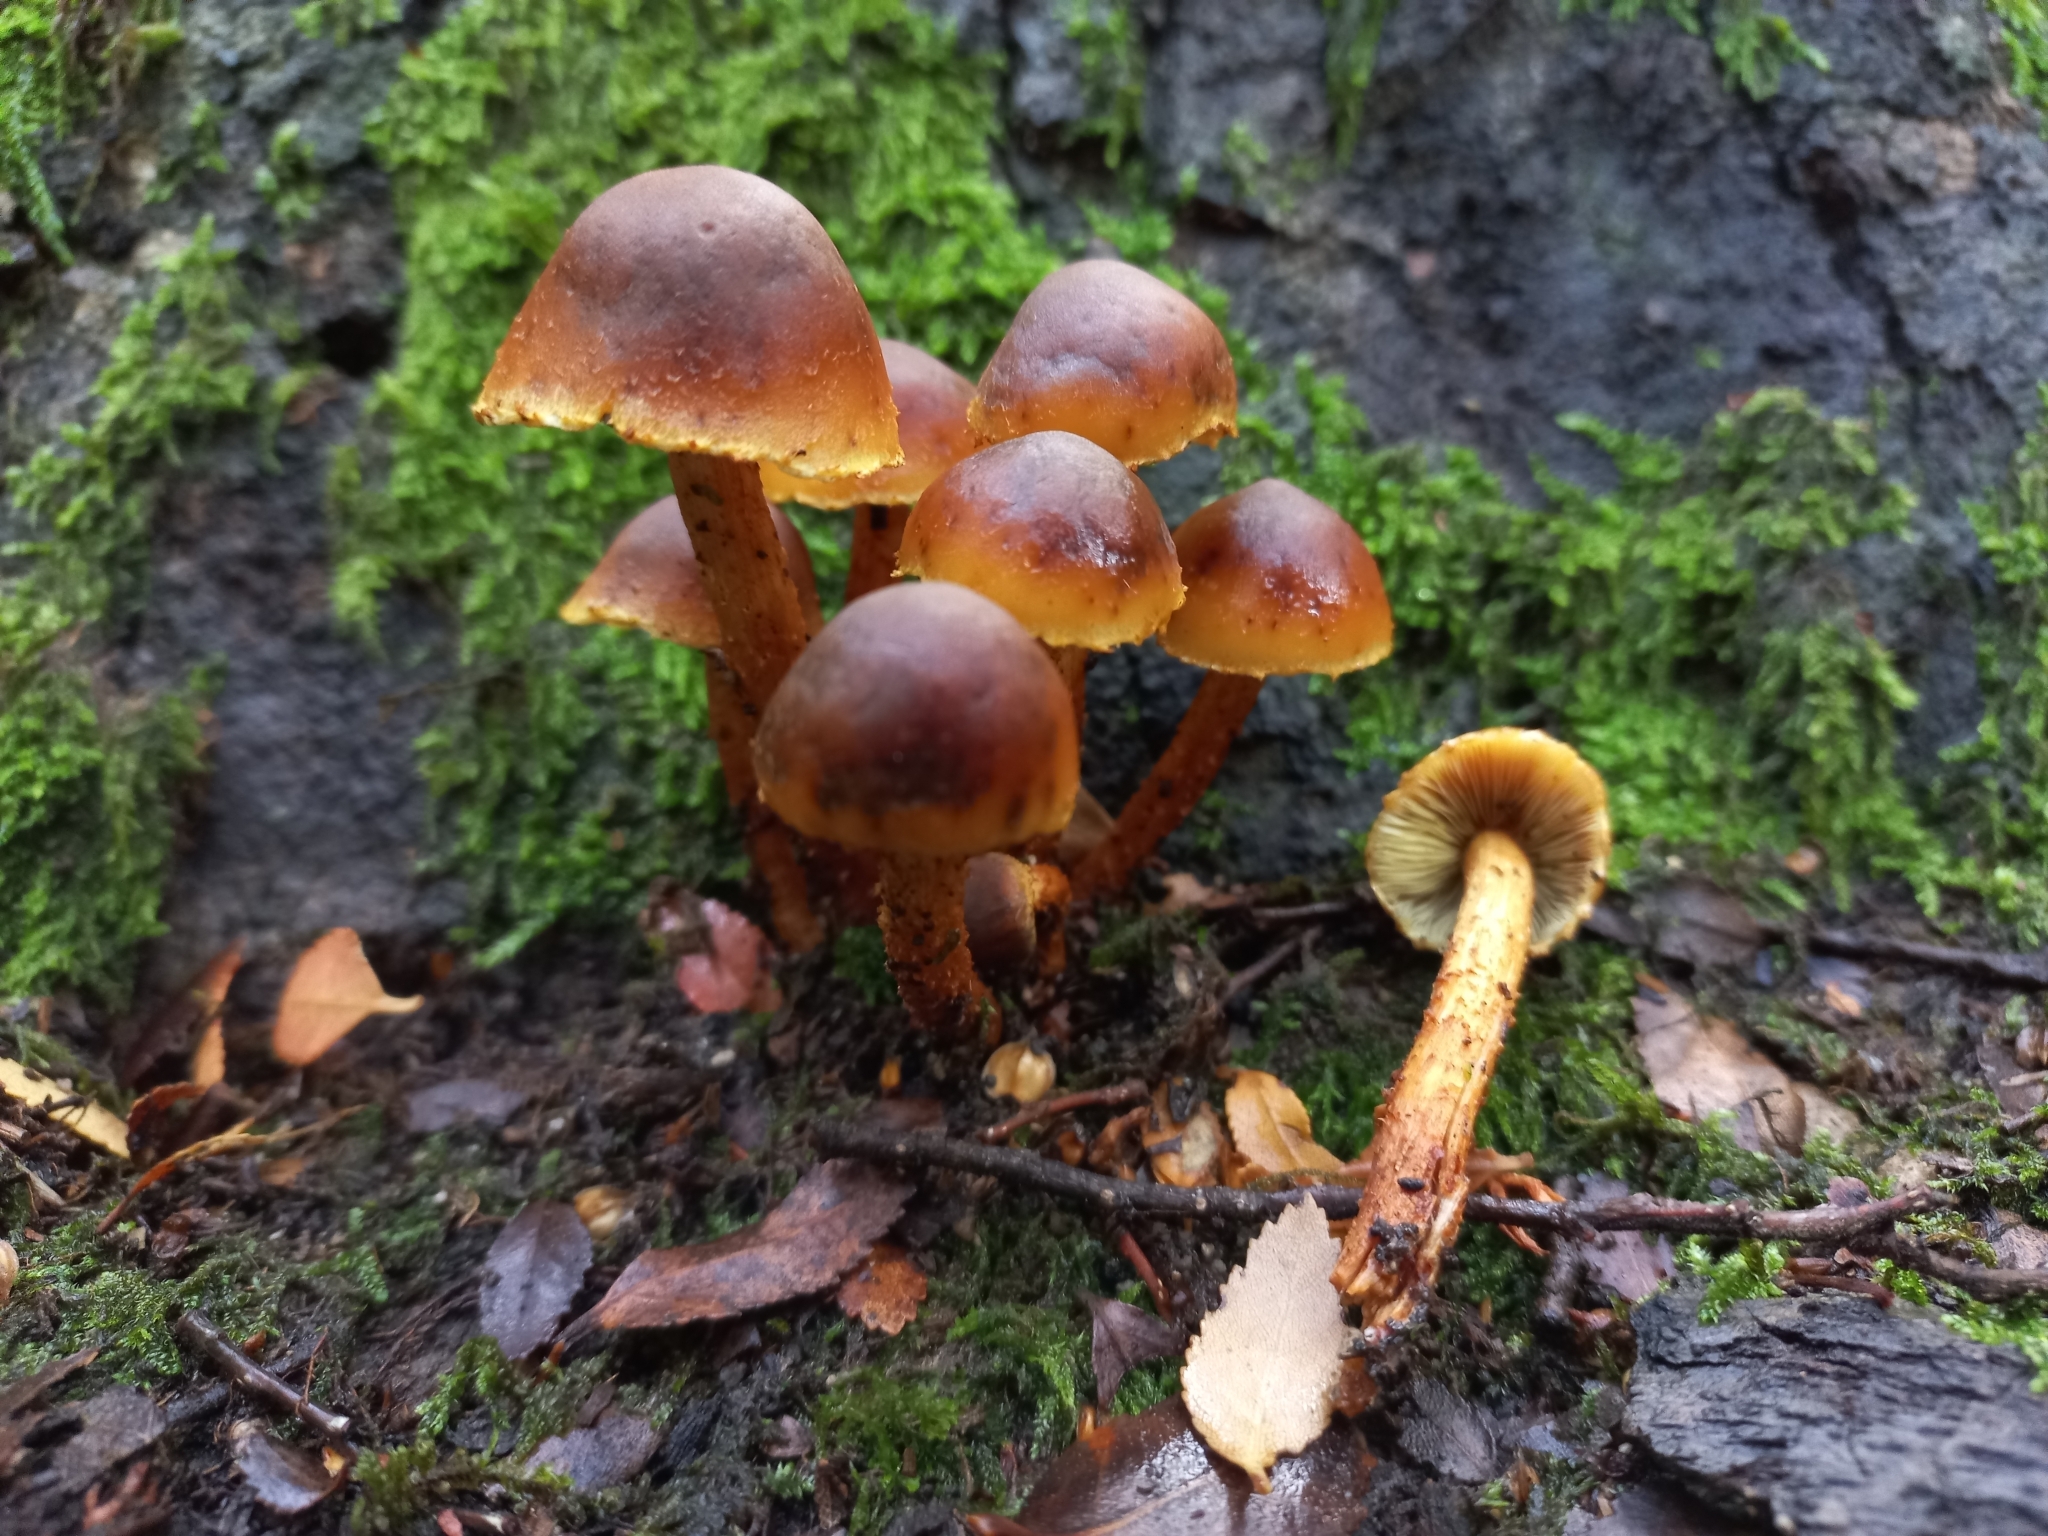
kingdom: Fungi
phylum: Basidiomycota
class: Agaricomycetes
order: Agaricales
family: Strophariaceae
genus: Hypholoma
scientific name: Hypholoma frowardii
